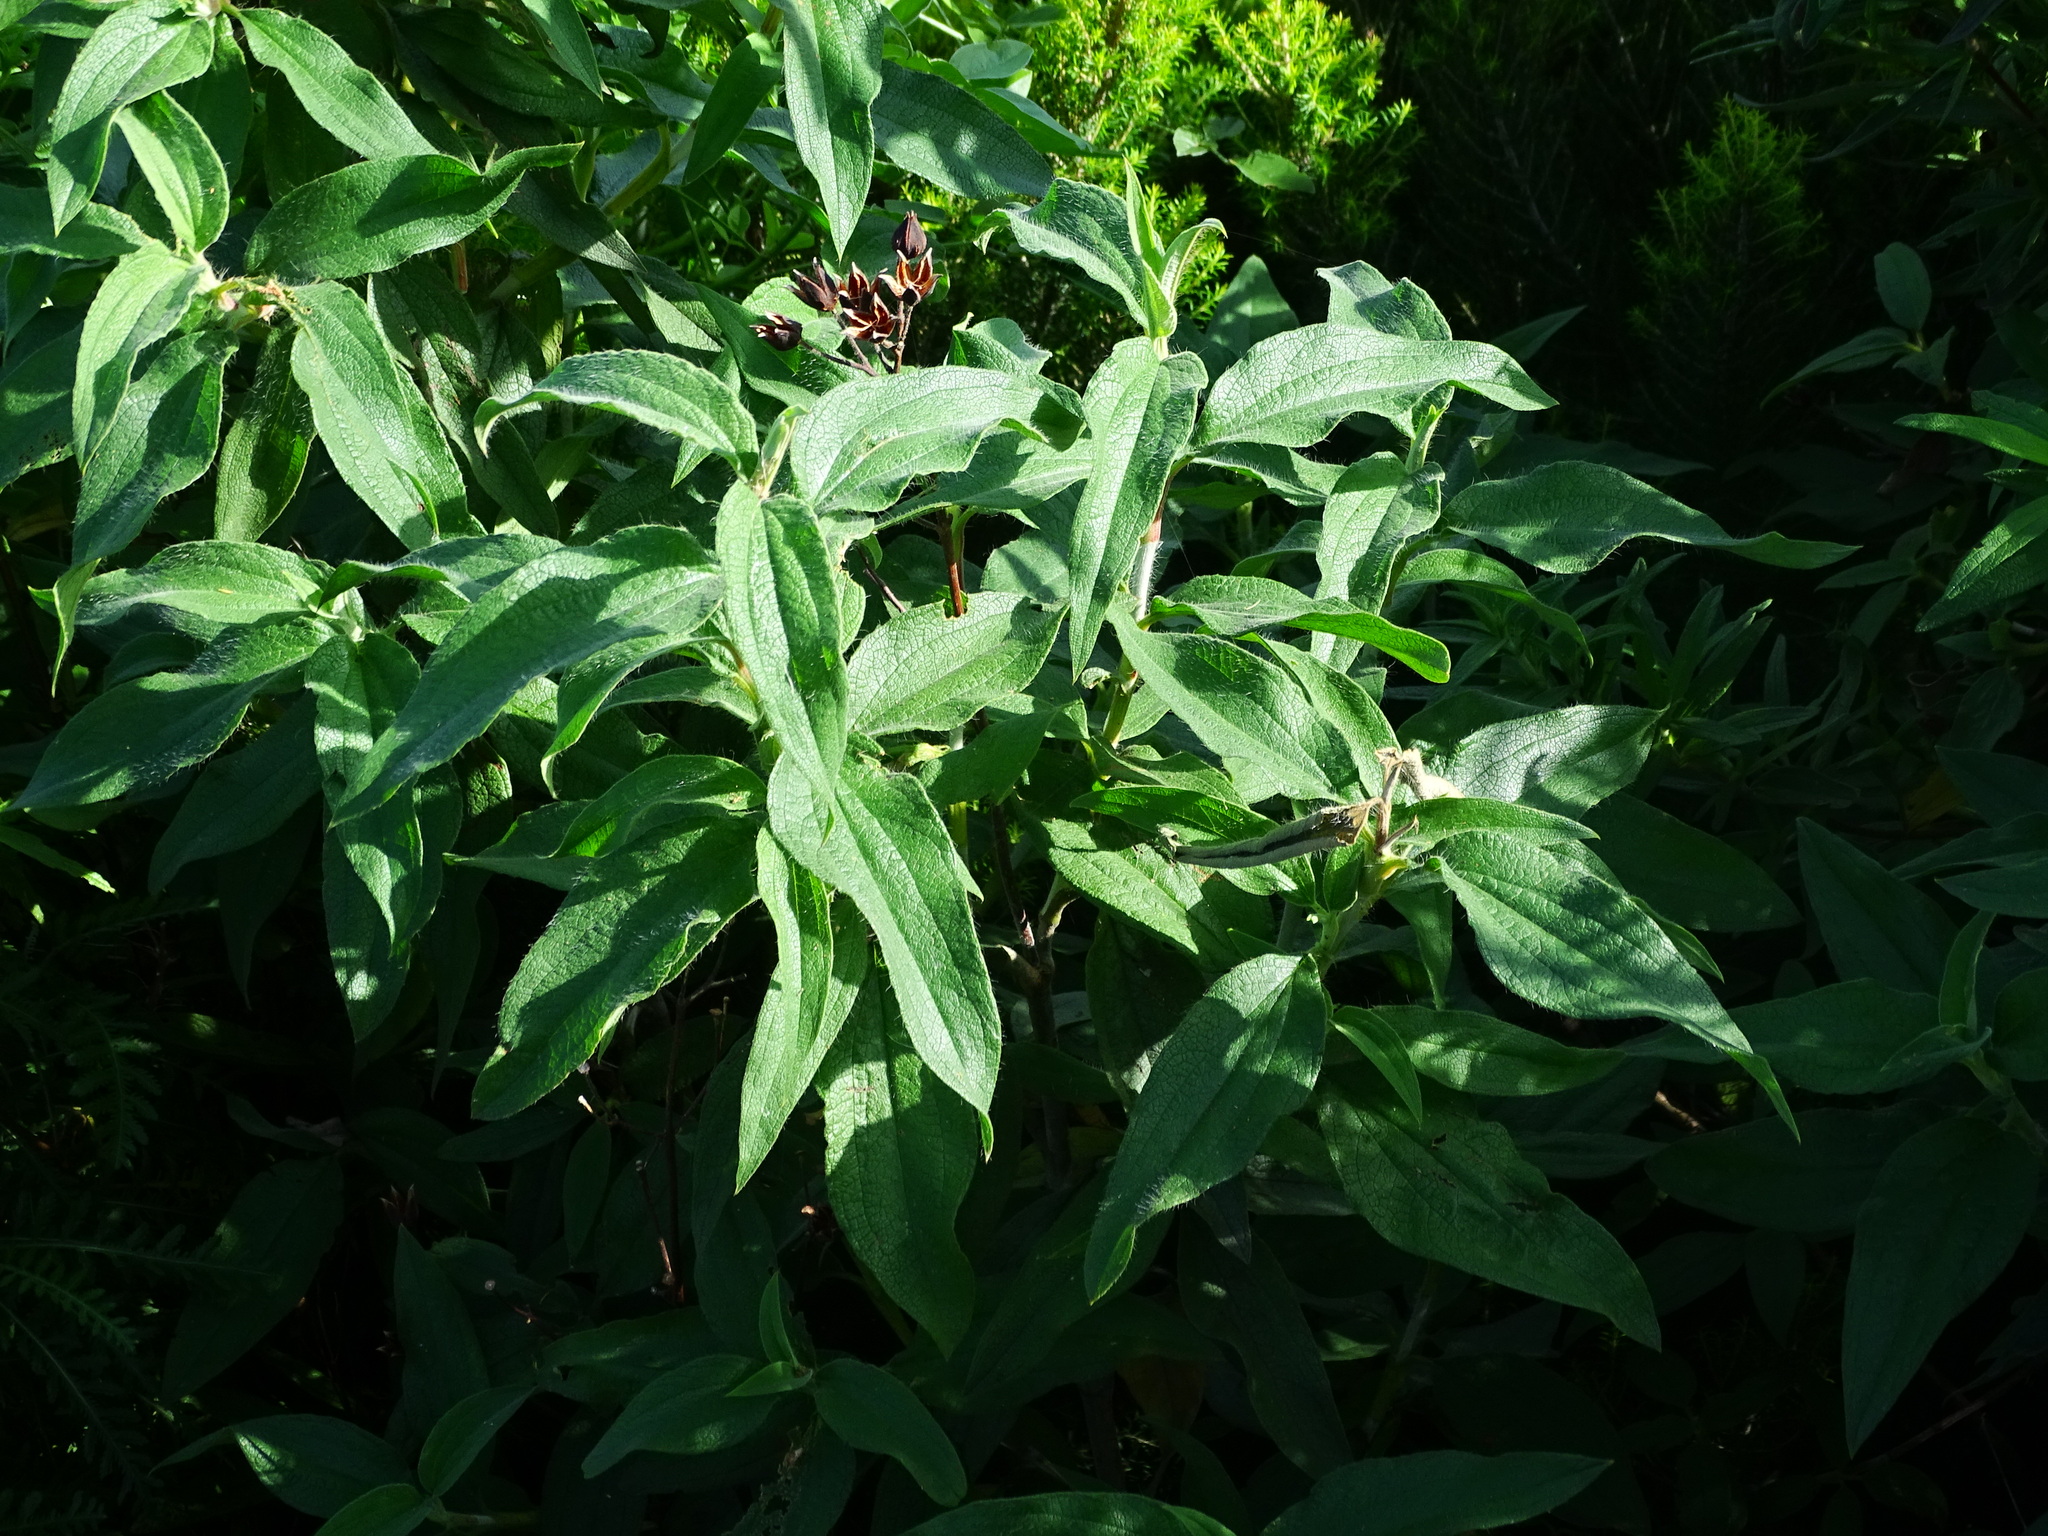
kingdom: Plantae
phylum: Tracheophyta
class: Magnoliopsida
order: Malvales
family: Cistaceae
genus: Cistus
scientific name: Cistus symphytifolius
